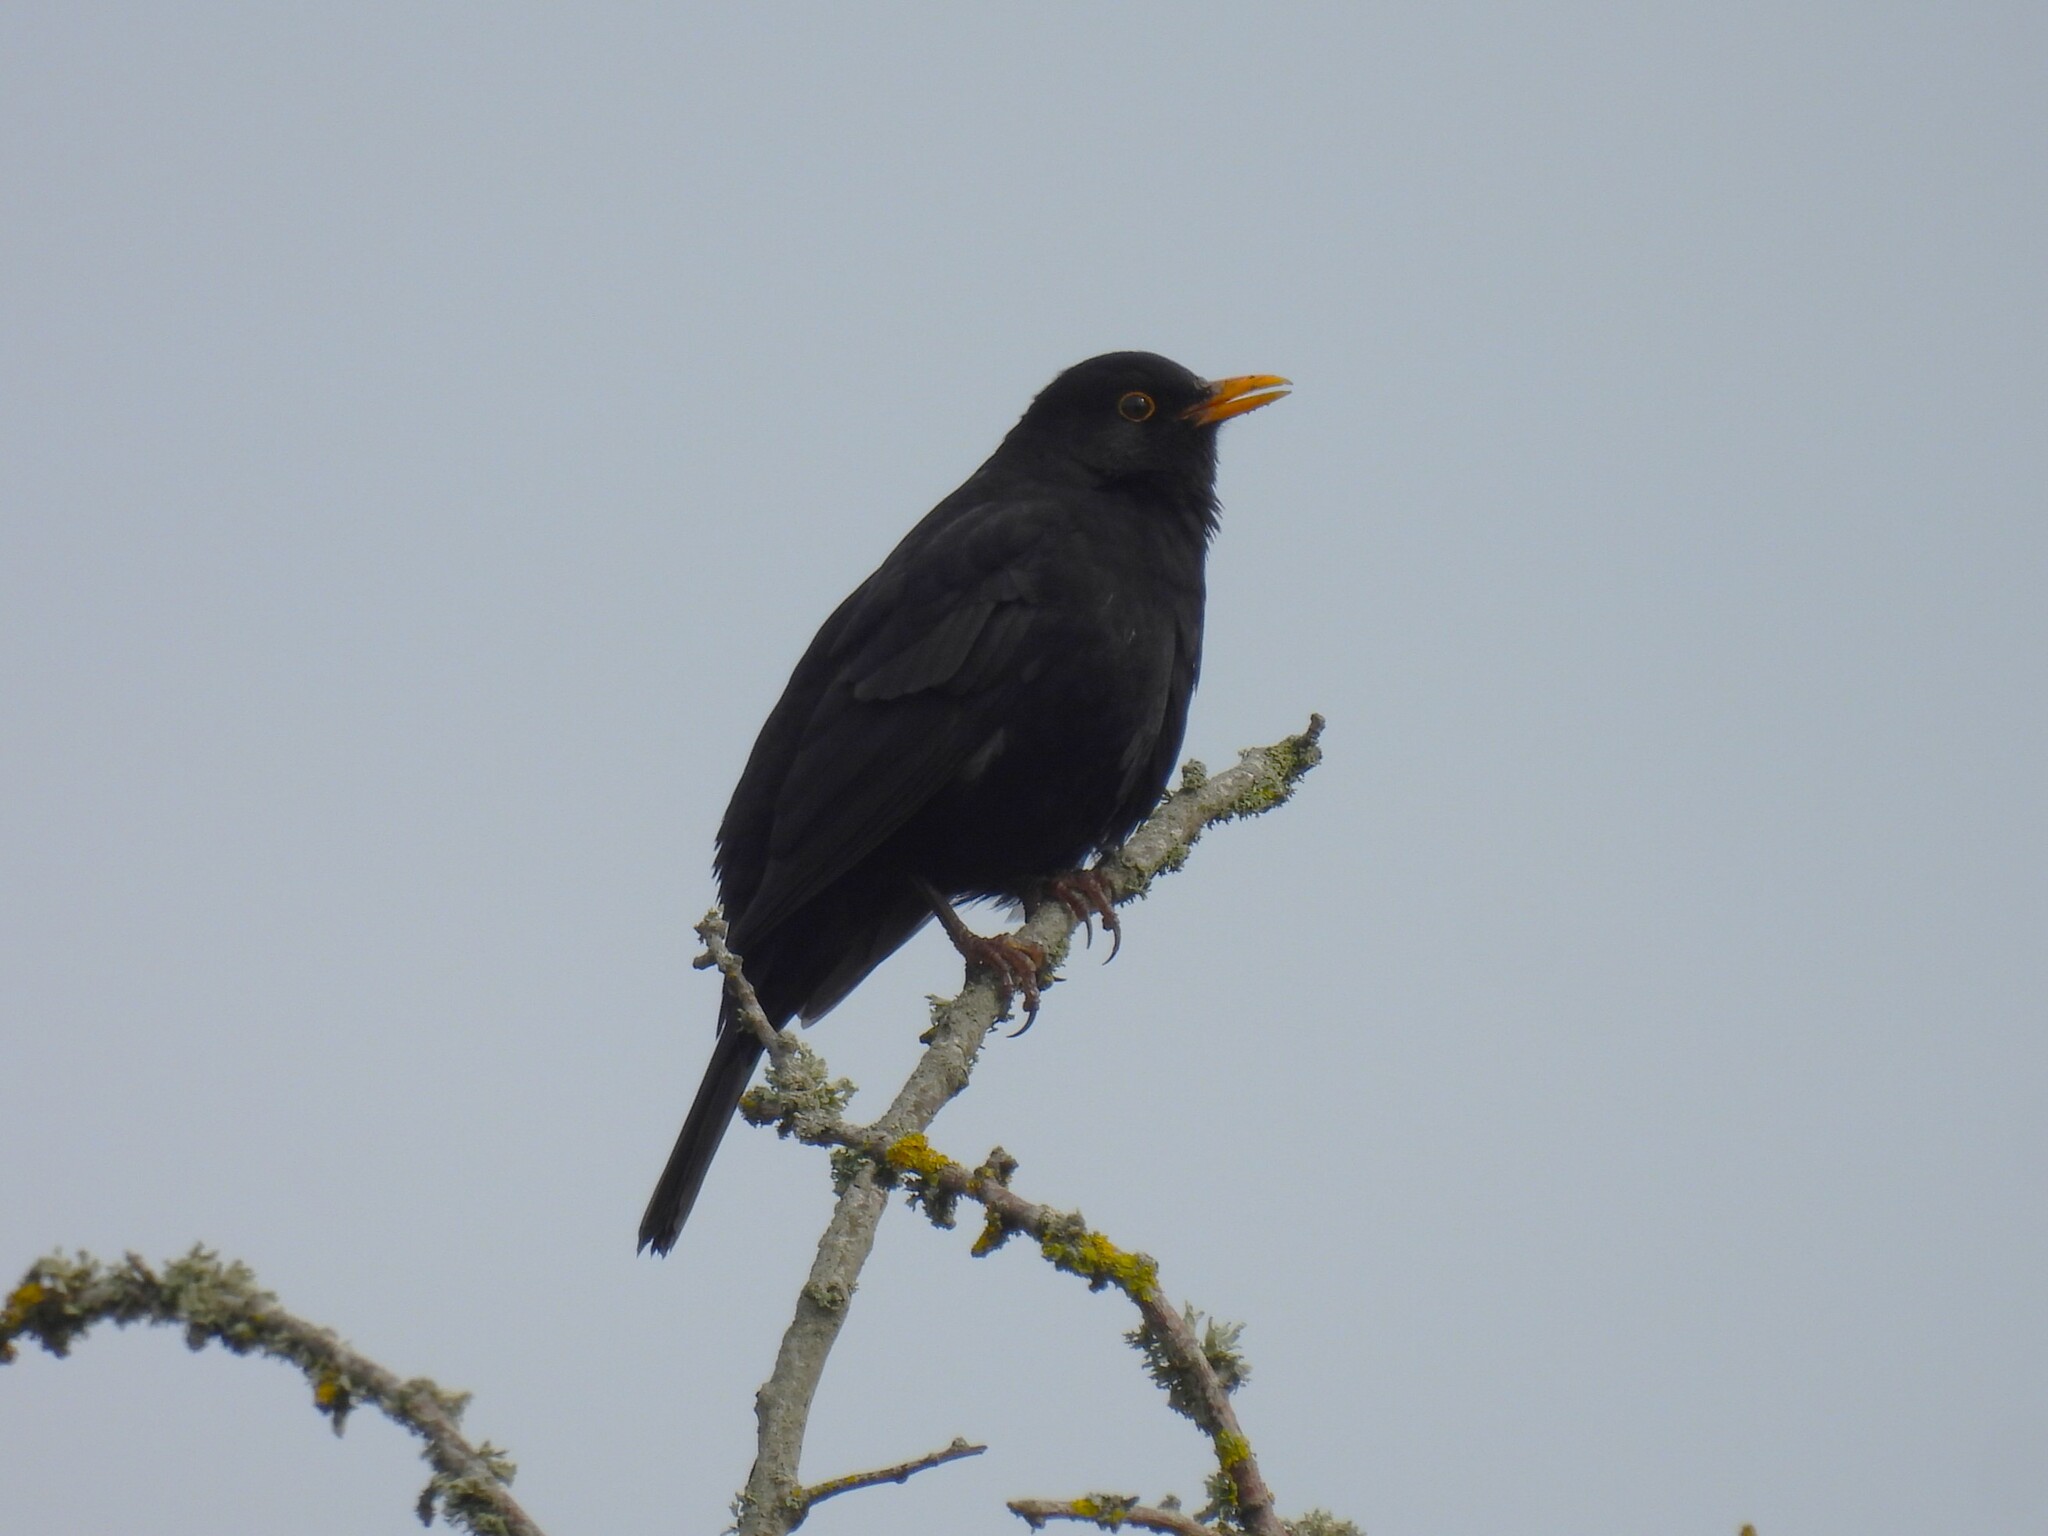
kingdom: Animalia
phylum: Chordata
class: Aves
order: Passeriformes
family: Turdidae
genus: Turdus
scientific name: Turdus merula
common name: Common blackbird
